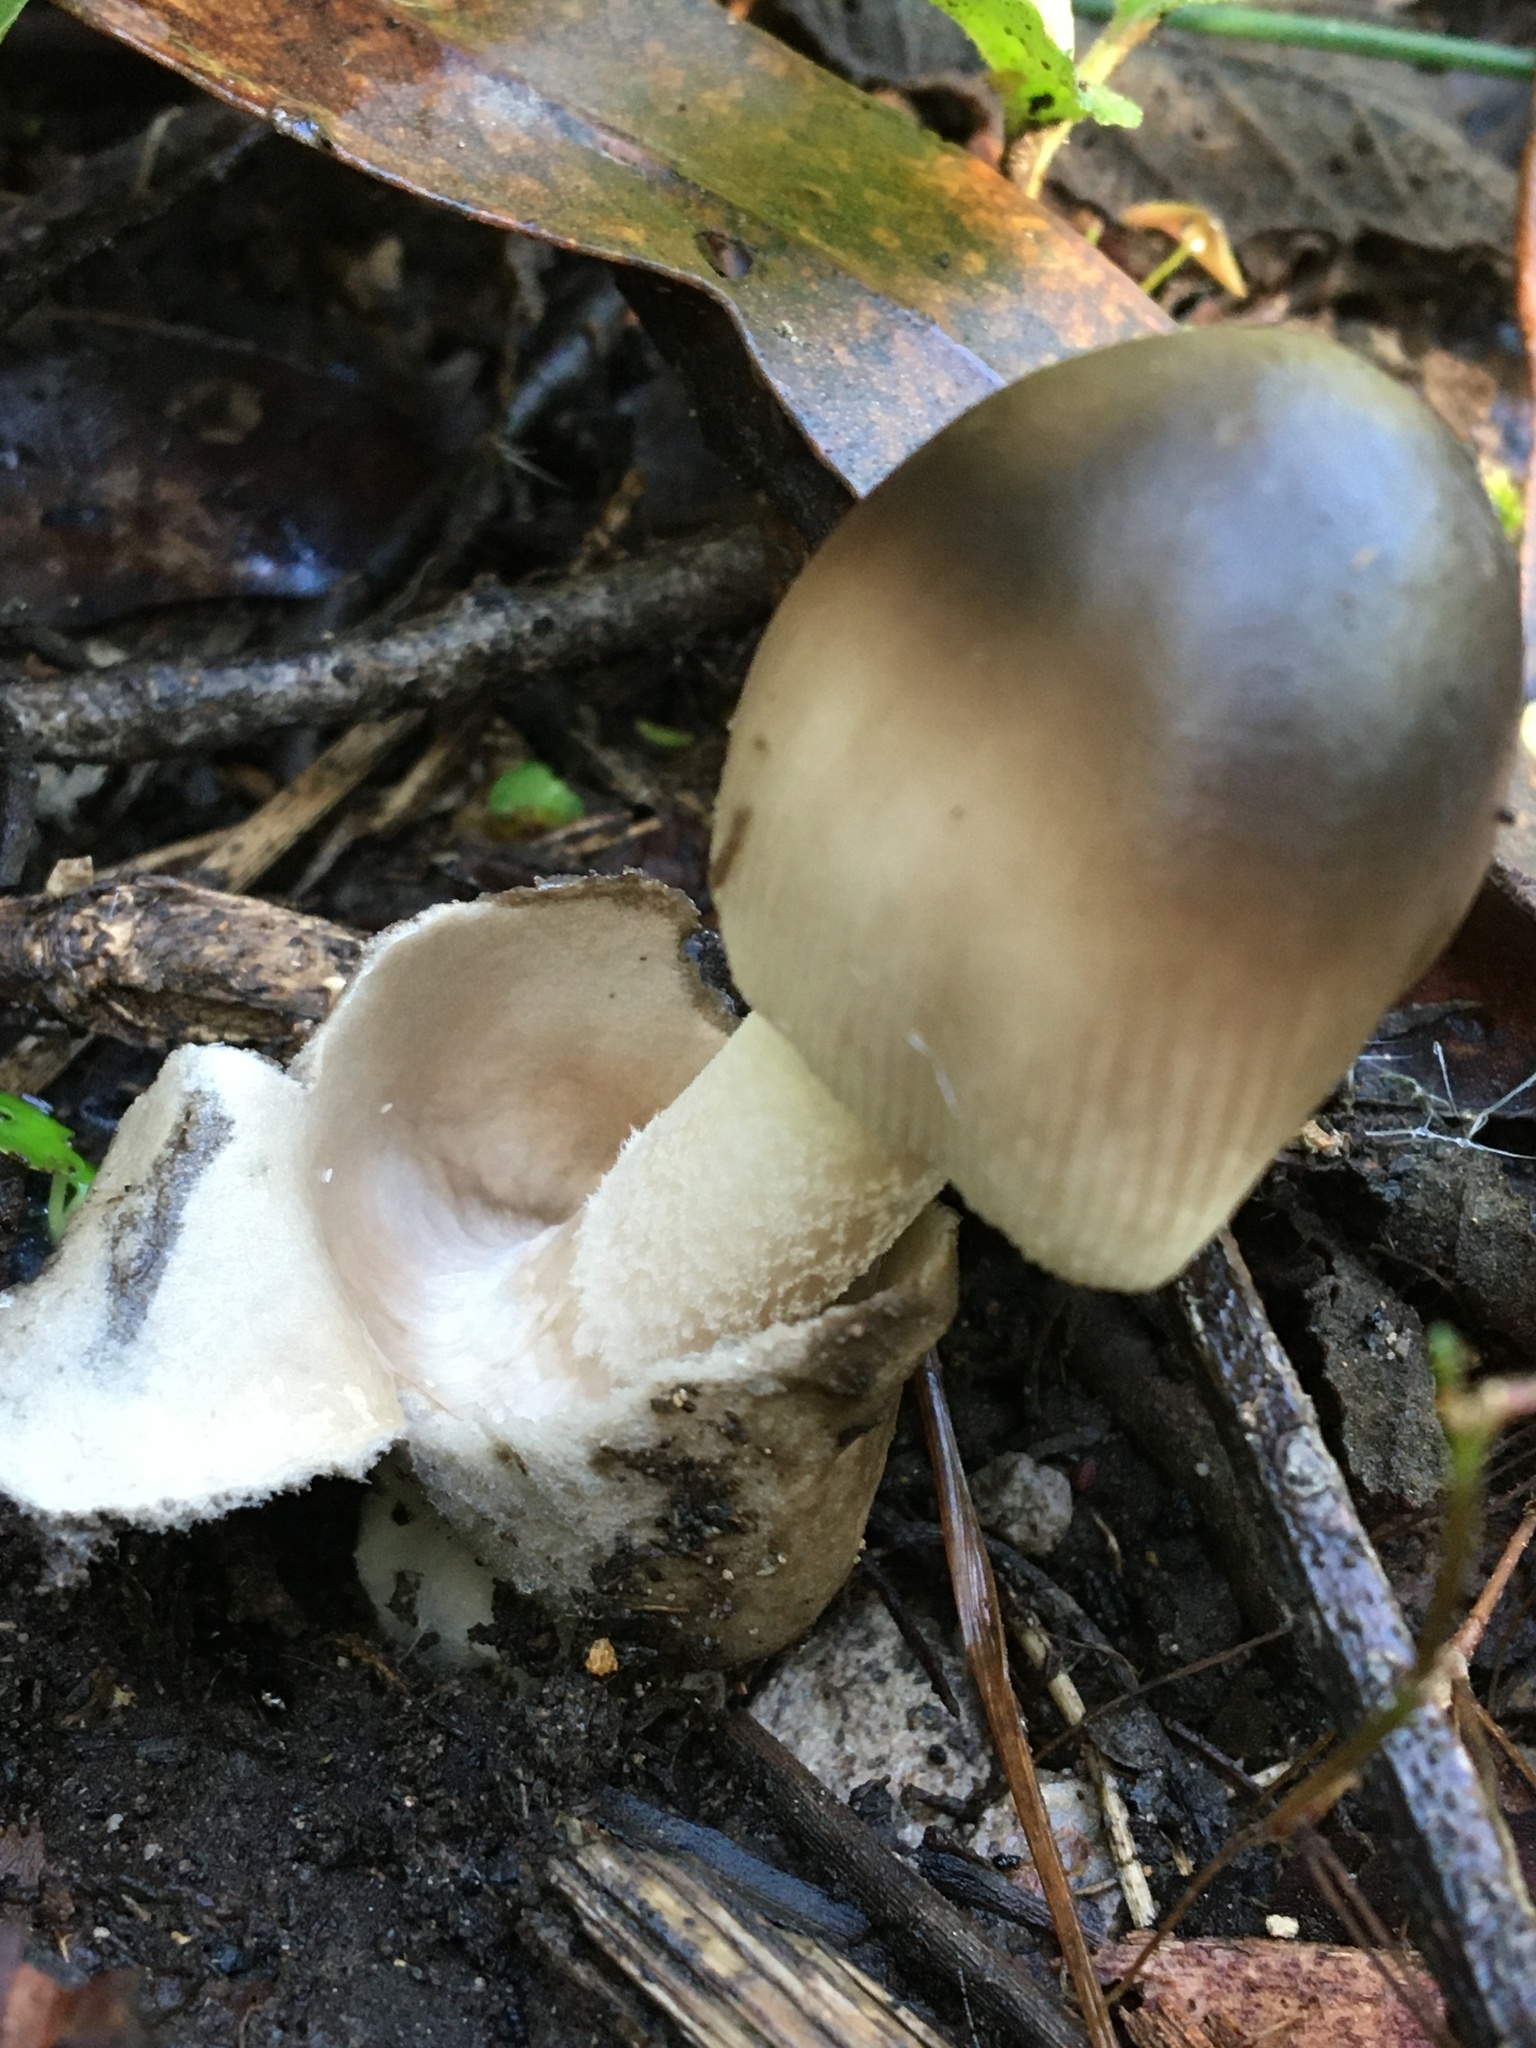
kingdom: Fungi
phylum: Basidiomycota
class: Agaricomycetes
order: Agaricales
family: Amanitaceae
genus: Amanita
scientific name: Amanita cheelii
